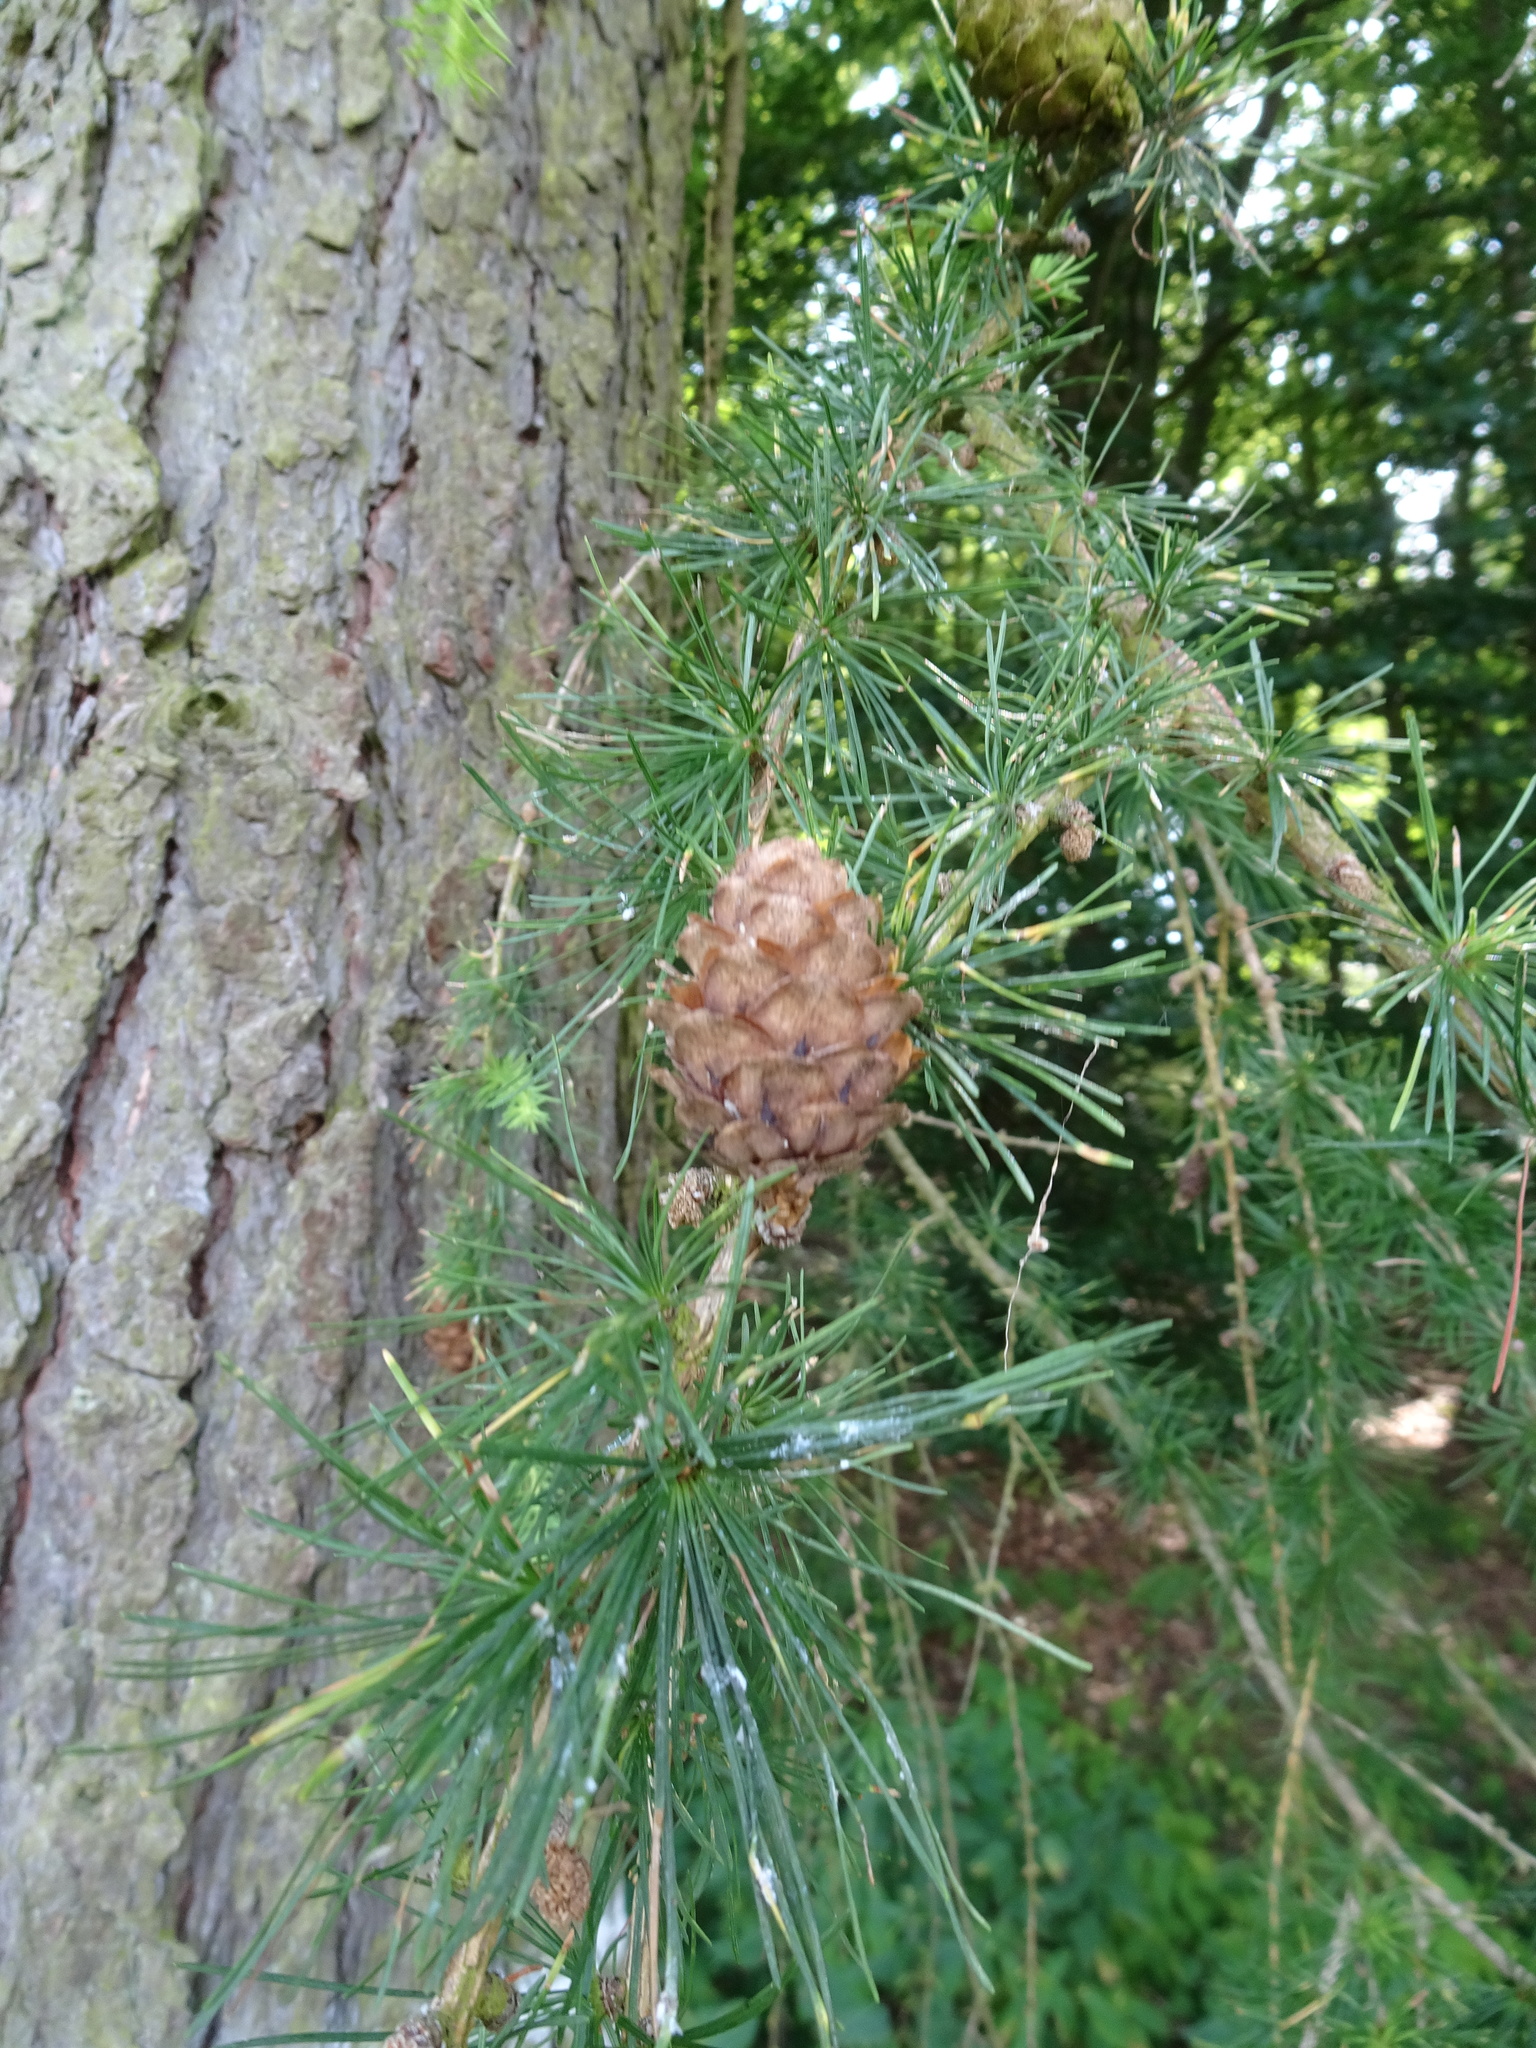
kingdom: Plantae
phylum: Tracheophyta
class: Pinopsida
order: Pinales
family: Pinaceae
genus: Larix
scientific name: Larix decidua
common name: European larch
